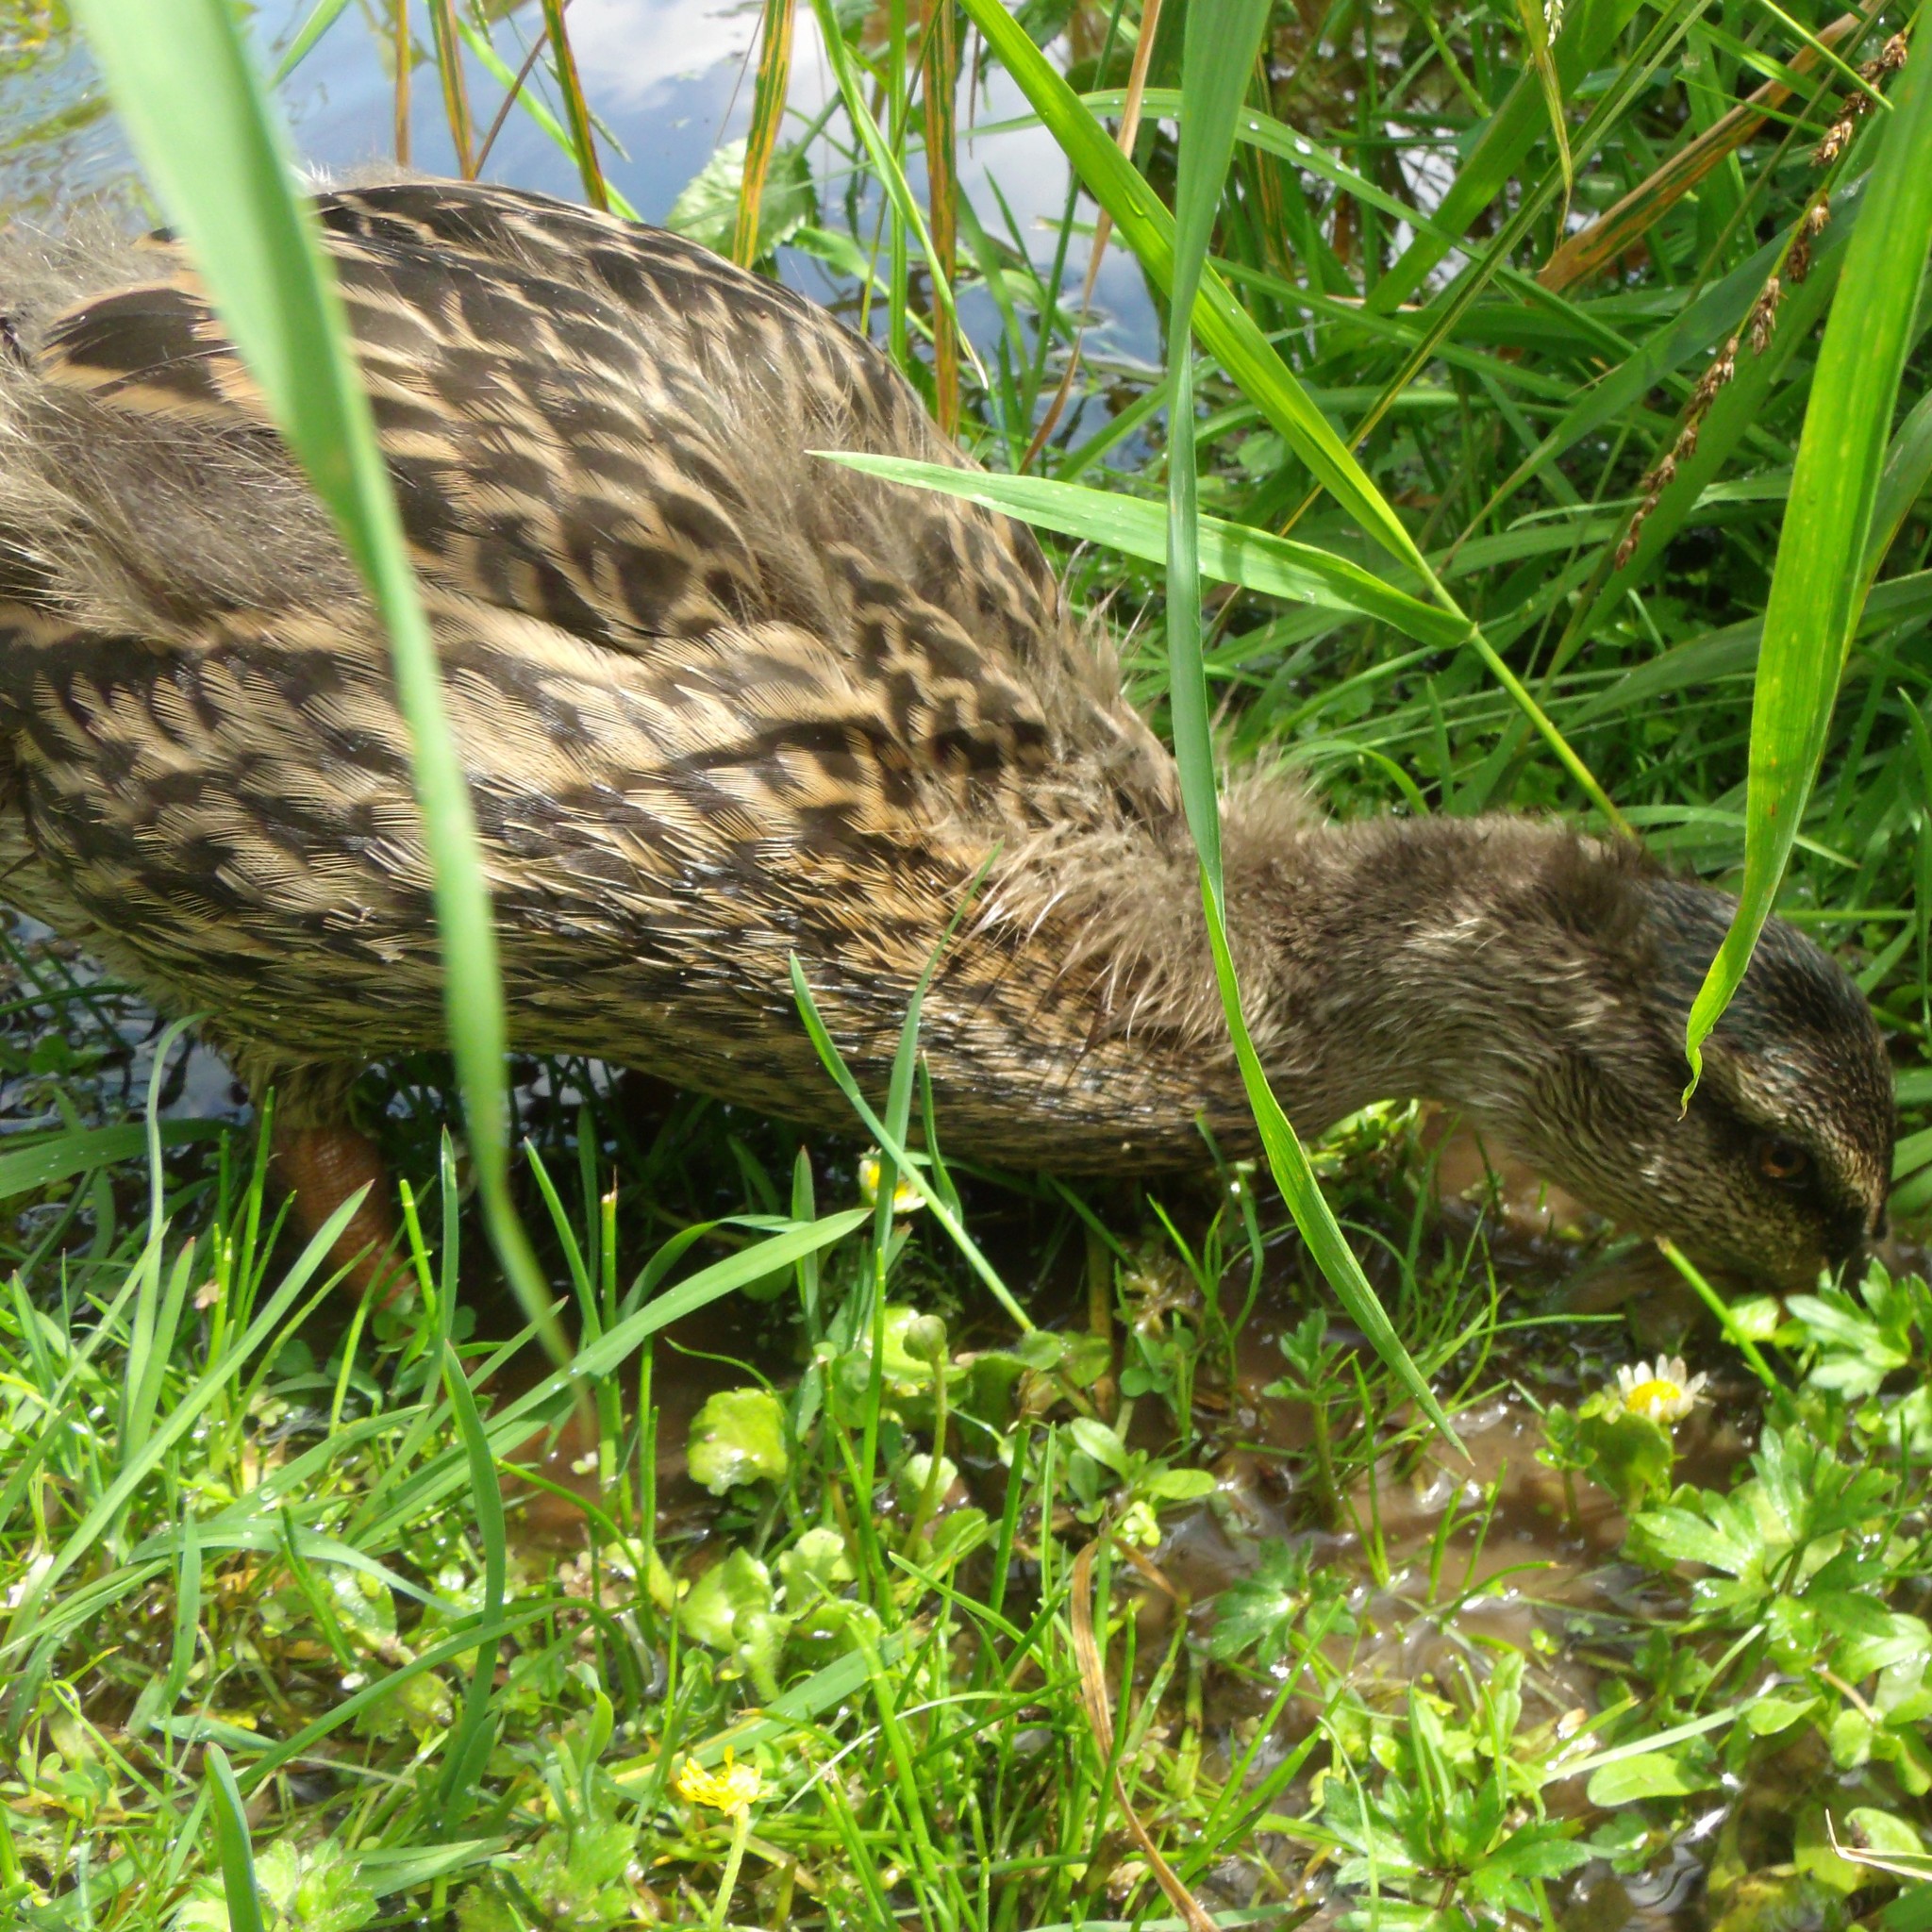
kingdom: Animalia
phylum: Chordata
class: Aves
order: Anseriformes
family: Anatidae
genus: Anas
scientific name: Anas platyrhynchos
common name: Mallard
